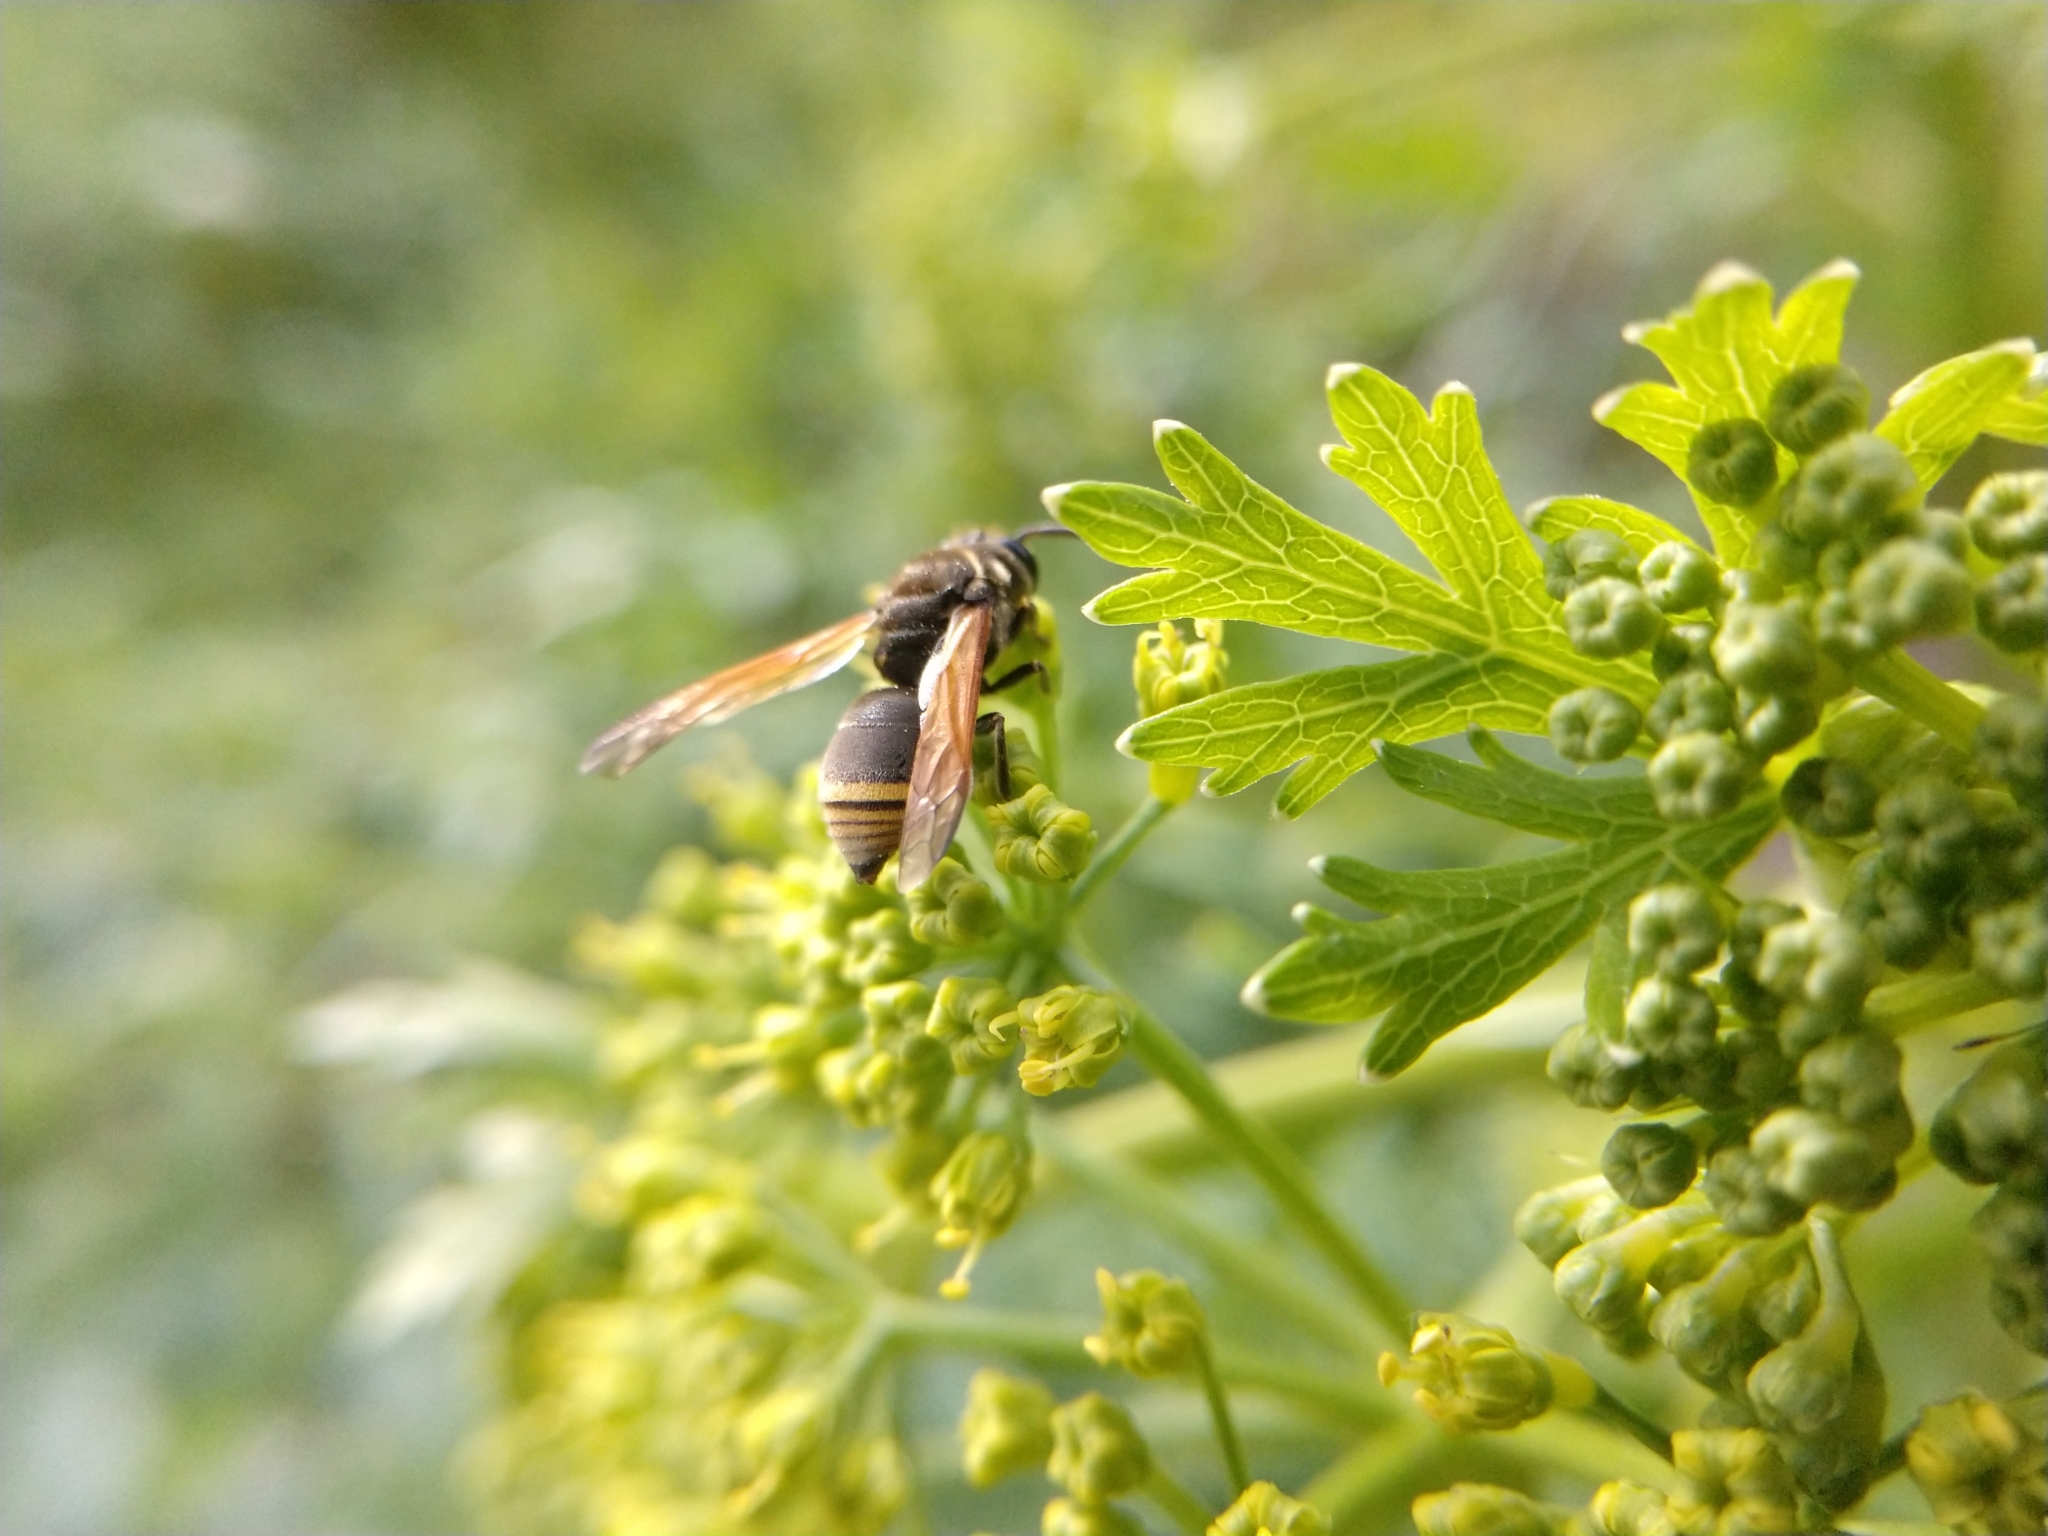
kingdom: Animalia
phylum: Arthropoda
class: Insecta
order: Hymenoptera
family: Eumenidae
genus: Pachodynerus
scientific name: Pachodynerus
